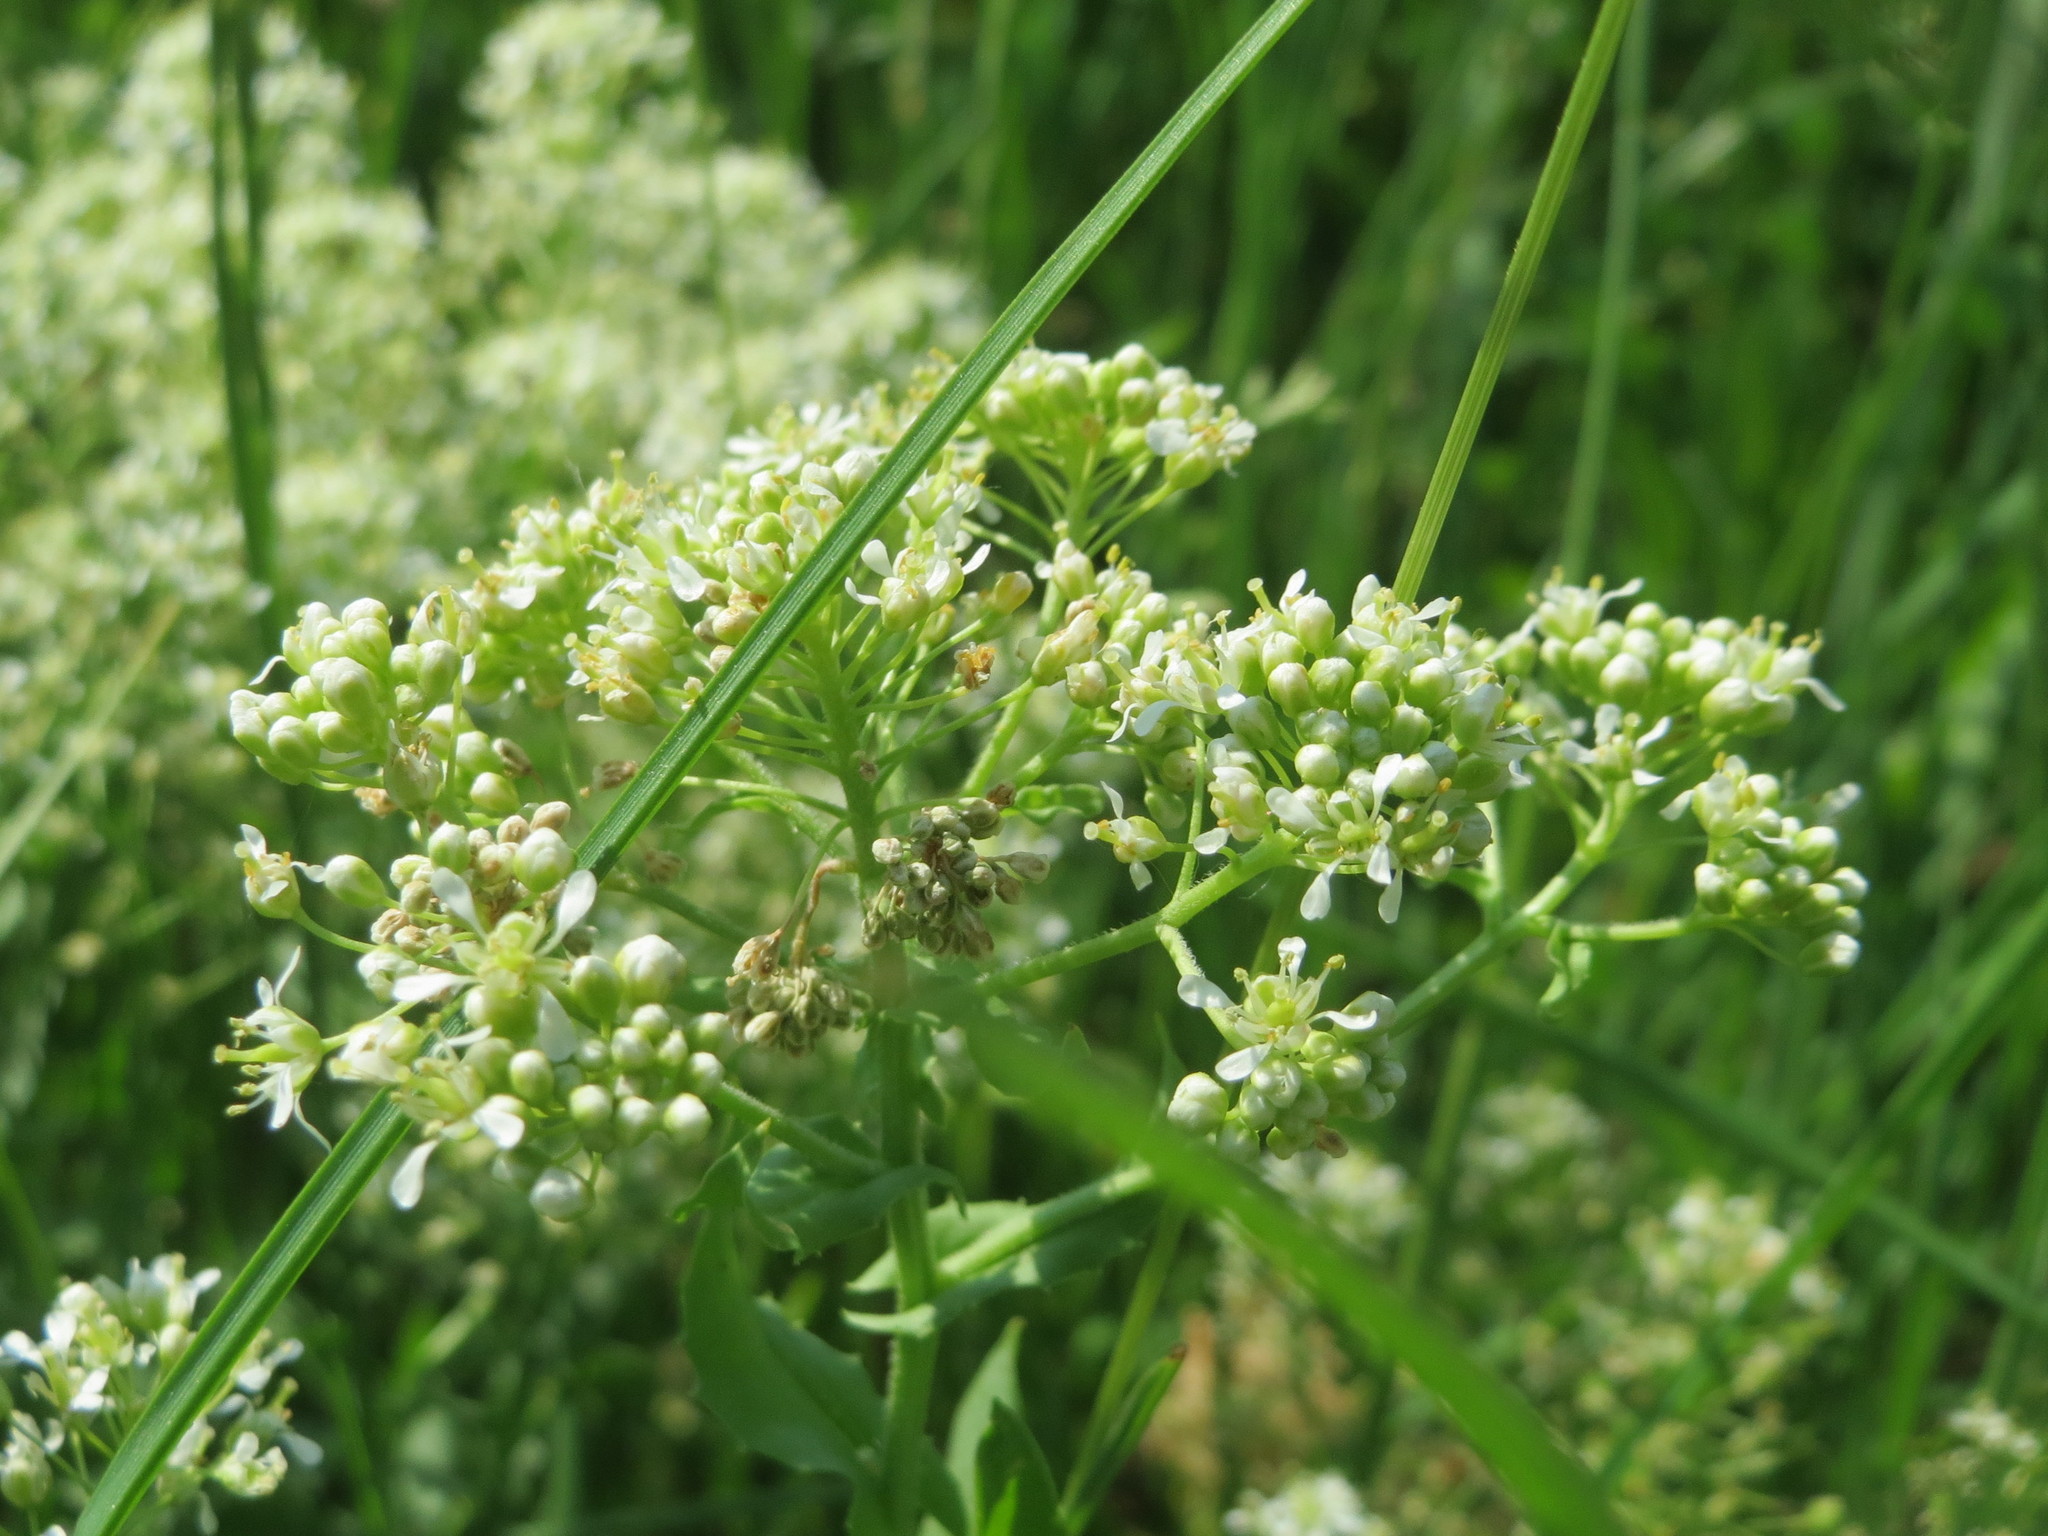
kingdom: Plantae
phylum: Tracheophyta
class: Magnoliopsida
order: Brassicales
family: Brassicaceae
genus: Lepidium
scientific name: Lepidium draba
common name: Hoary cress
